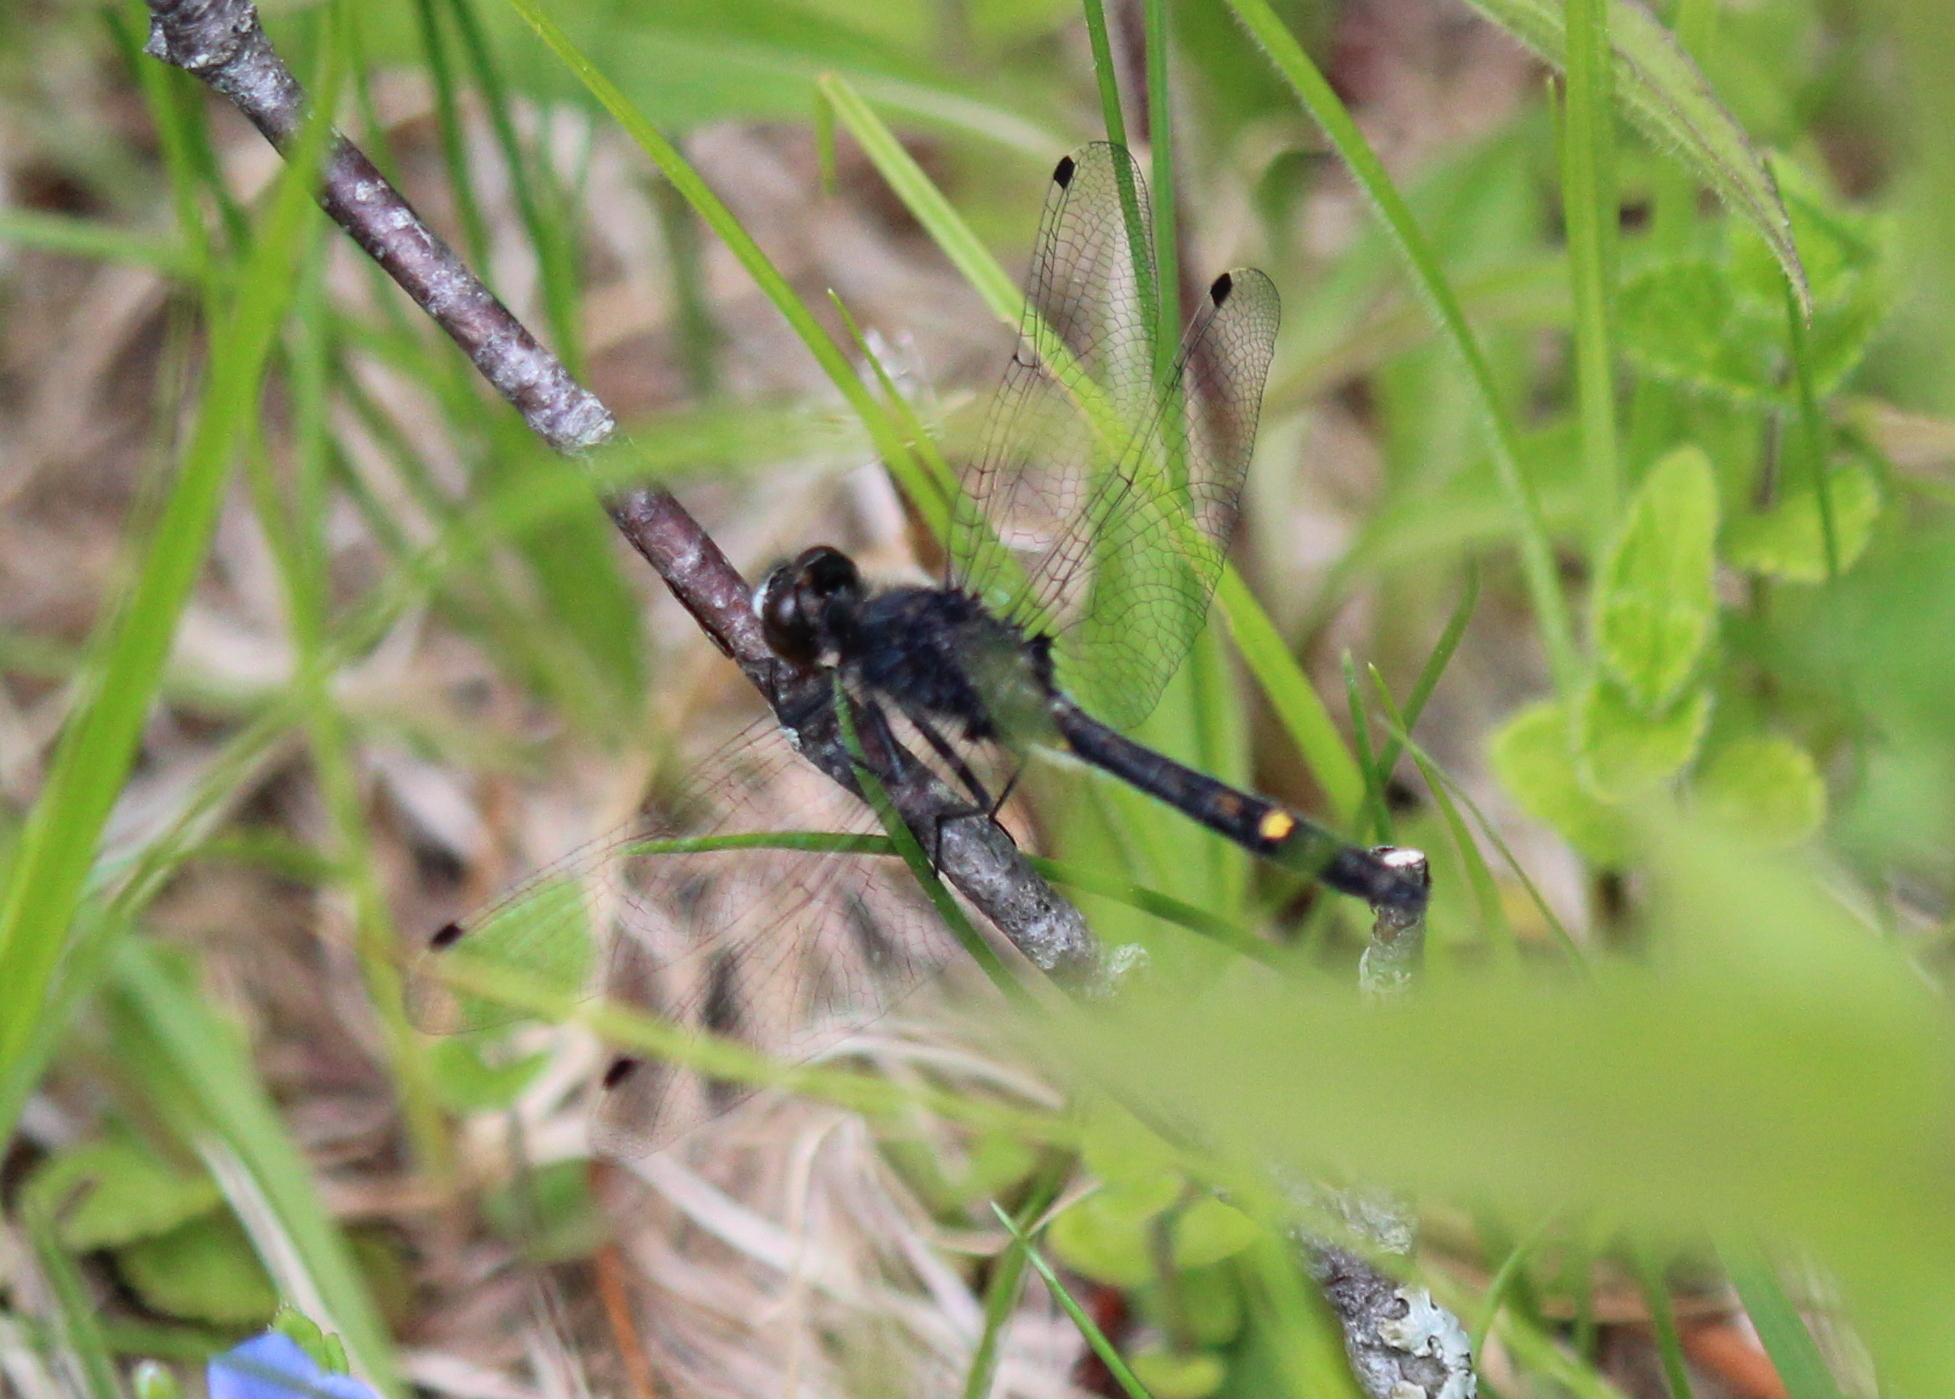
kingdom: Animalia
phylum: Arthropoda
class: Insecta
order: Odonata
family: Libellulidae
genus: Leucorrhinia
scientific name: Leucorrhinia intacta
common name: Dot-tailed whiteface
